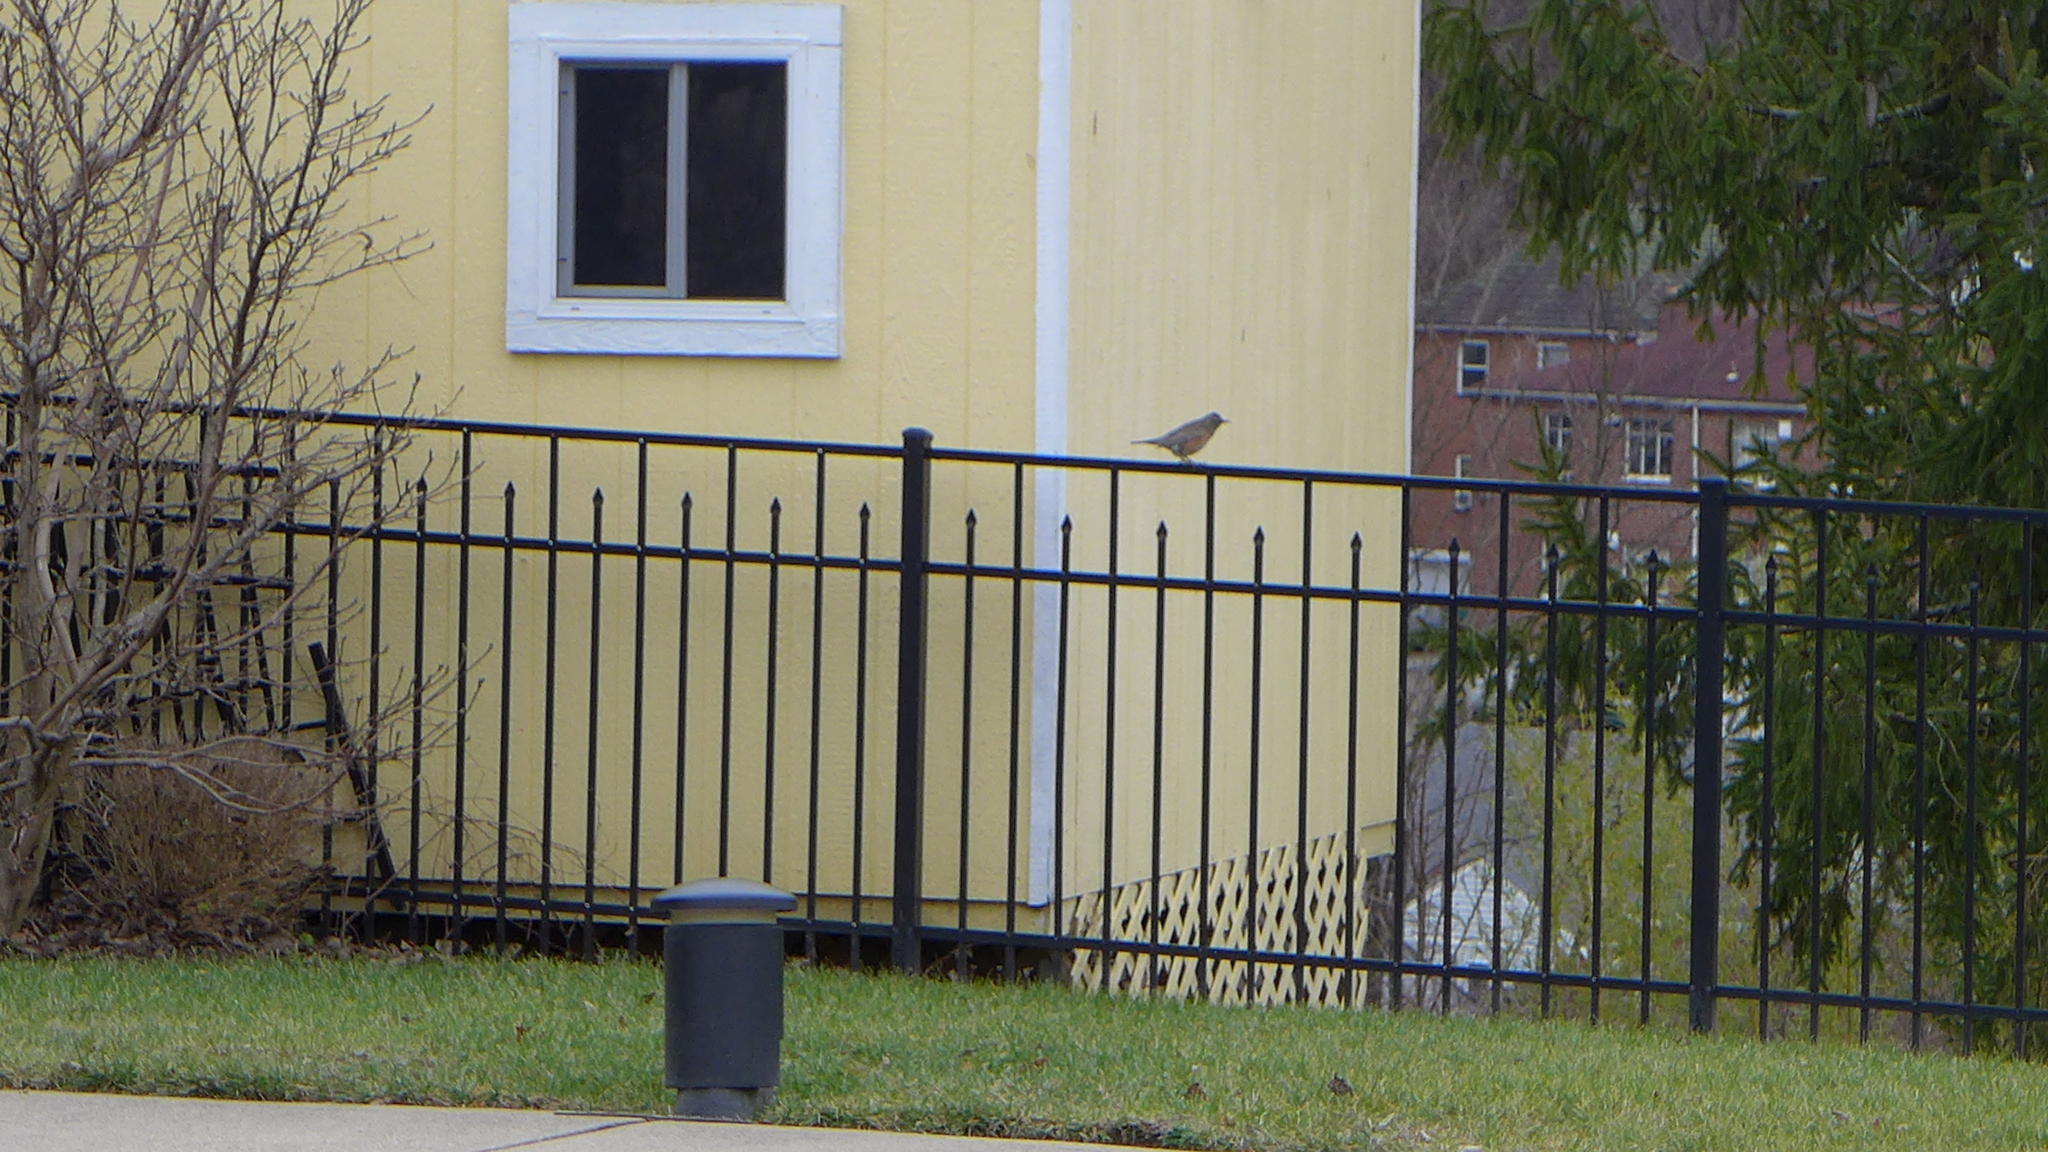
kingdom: Animalia
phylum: Chordata
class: Aves
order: Passeriformes
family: Turdidae
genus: Turdus
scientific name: Turdus migratorius
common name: American robin
